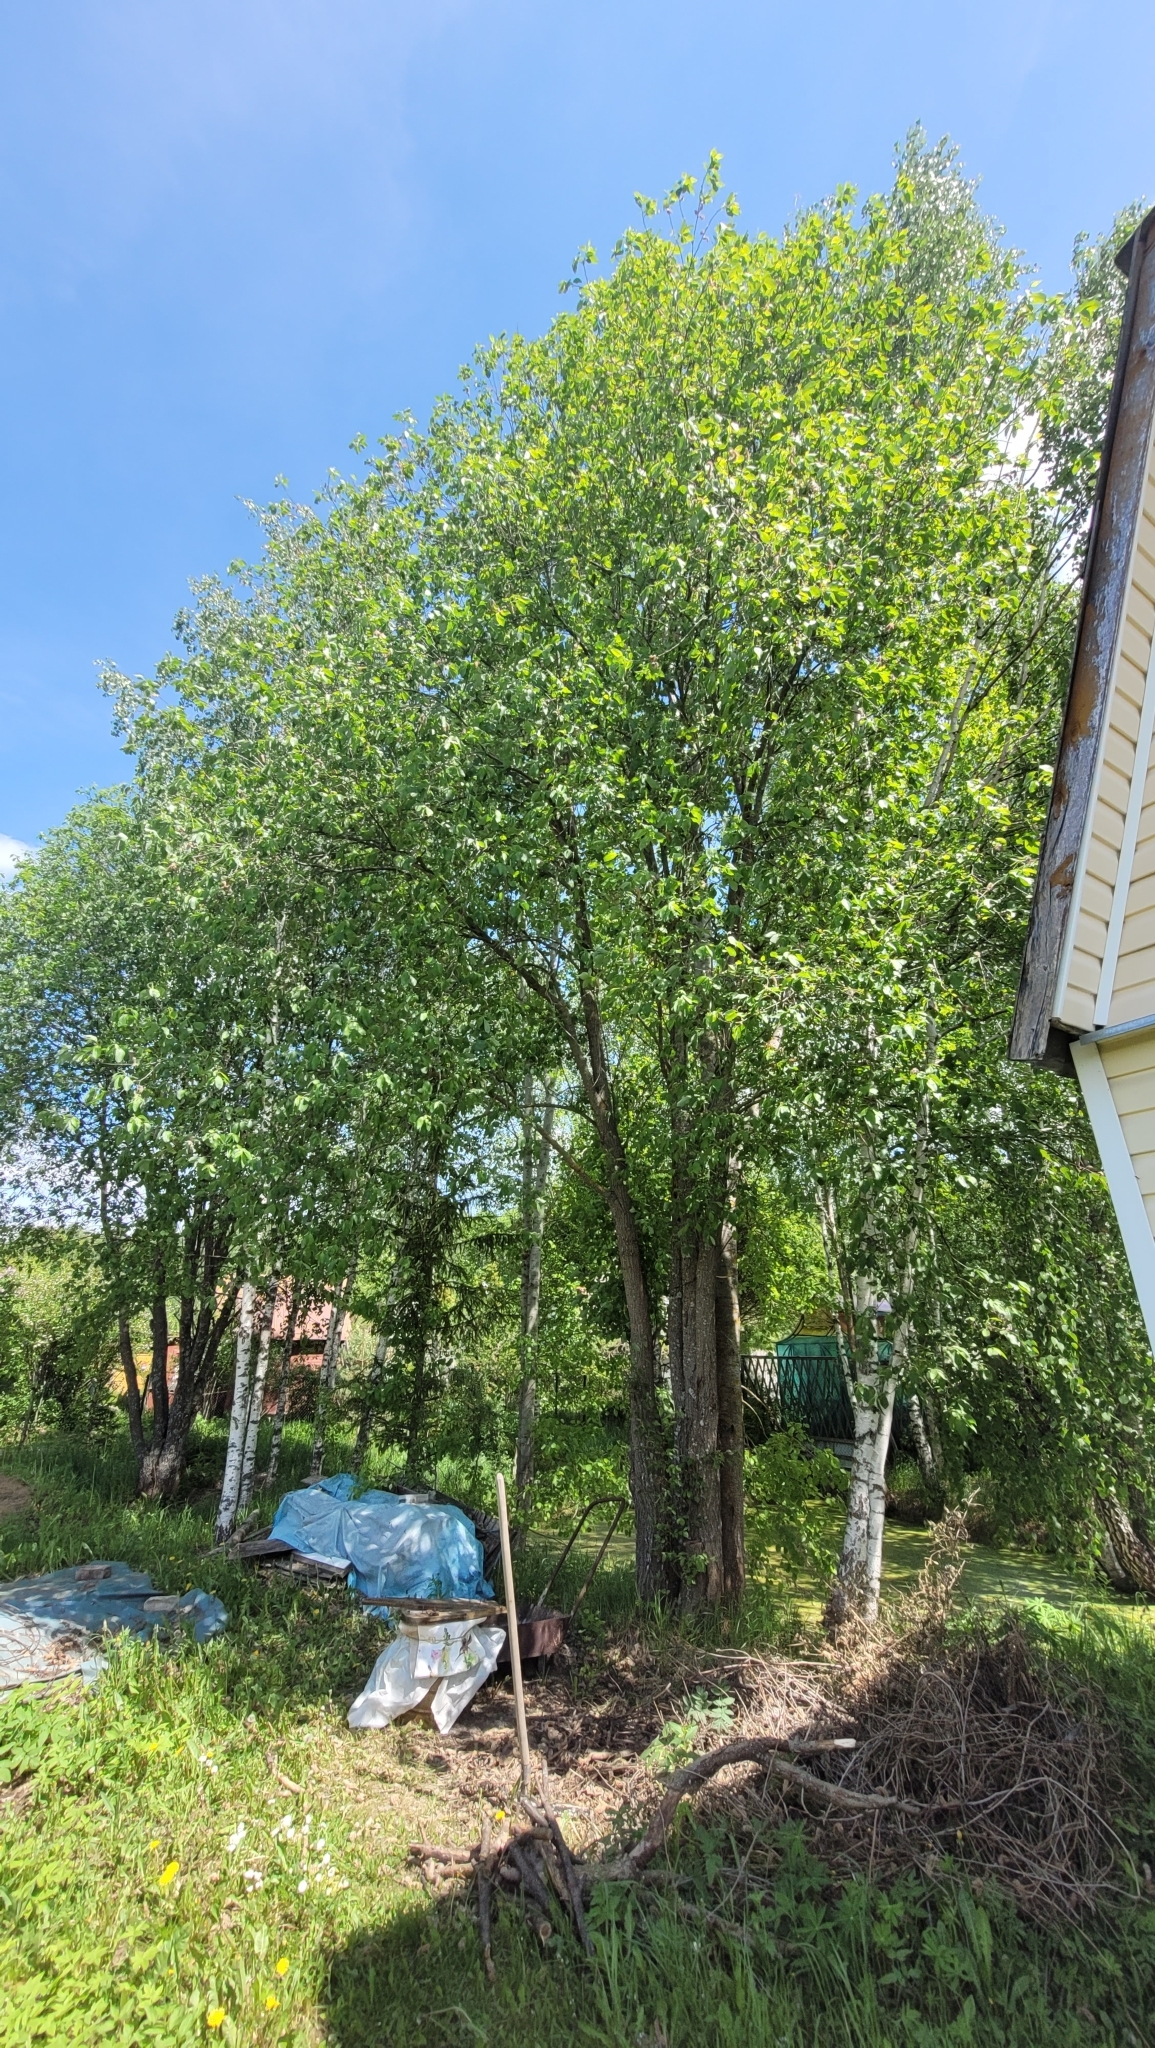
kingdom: Plantae
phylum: Tracheophyta
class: Magnoliopsida
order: Malpighiales
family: Salicaceae
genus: Salix
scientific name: Salix caprea
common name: Goat willow
